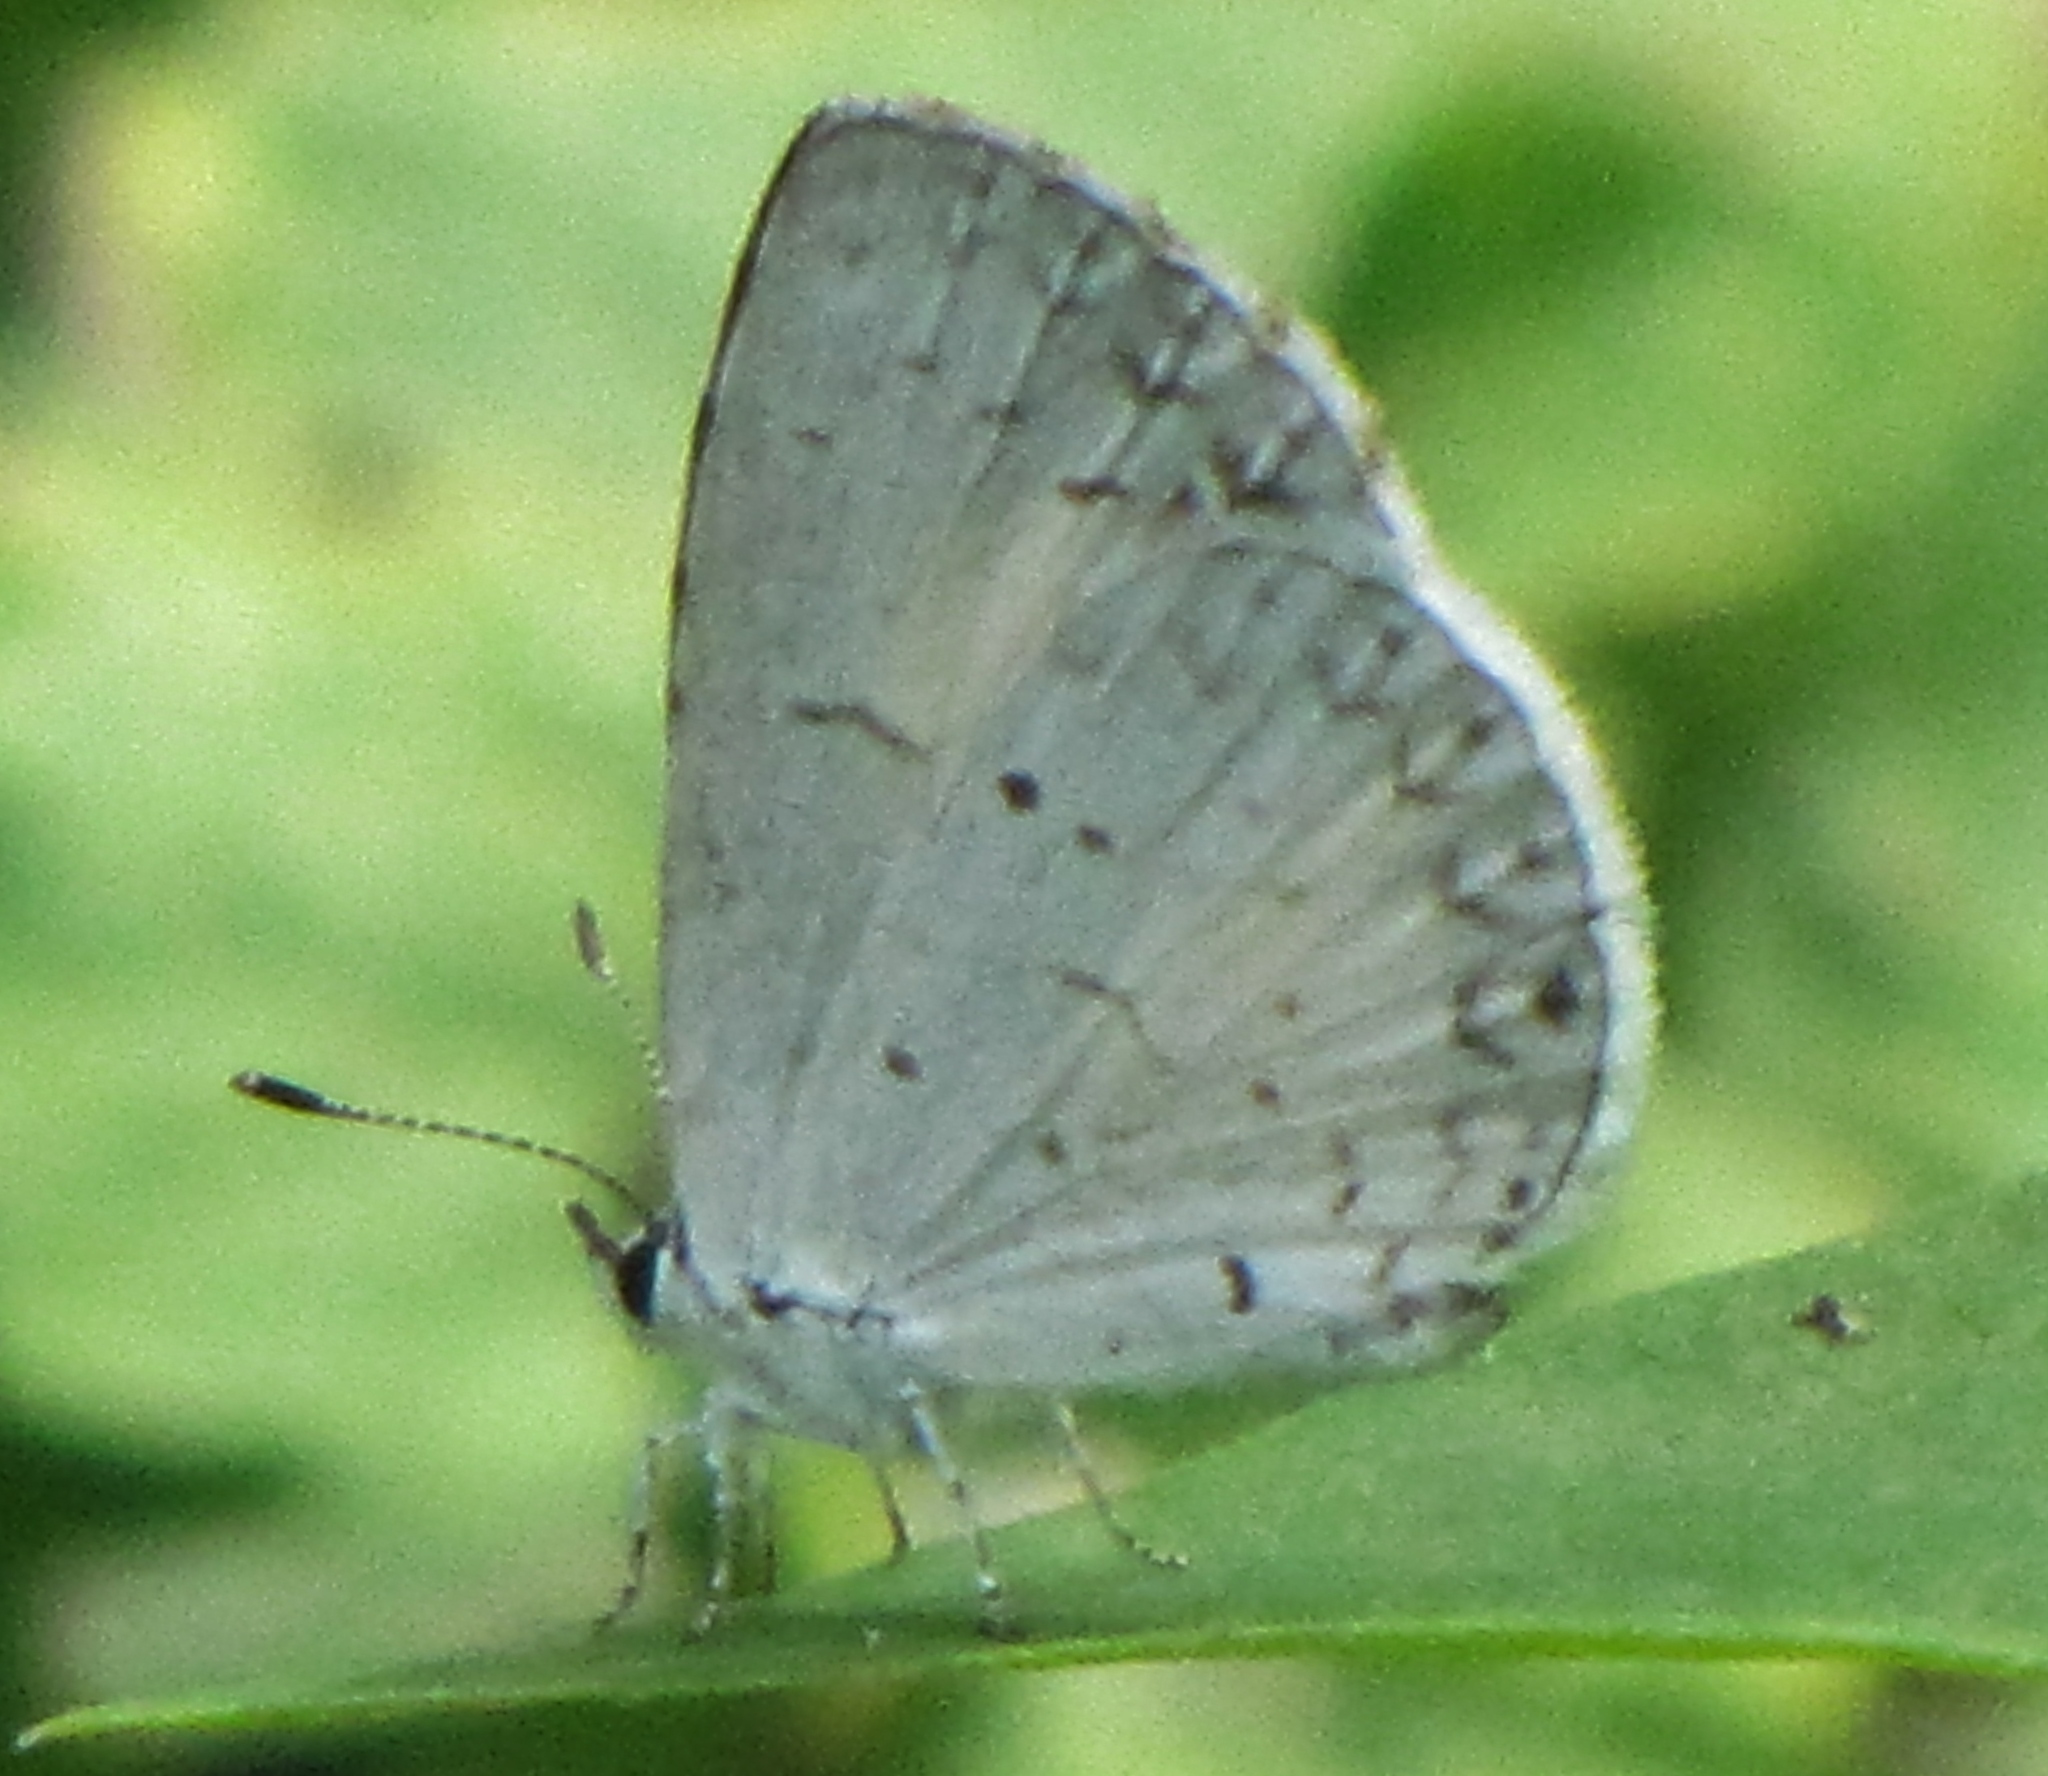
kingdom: Animalia
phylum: Arthropoda
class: Insecta
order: Lepidoptera
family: Lycaenidae
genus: Cyaniris
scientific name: Cyaniris neglecta
